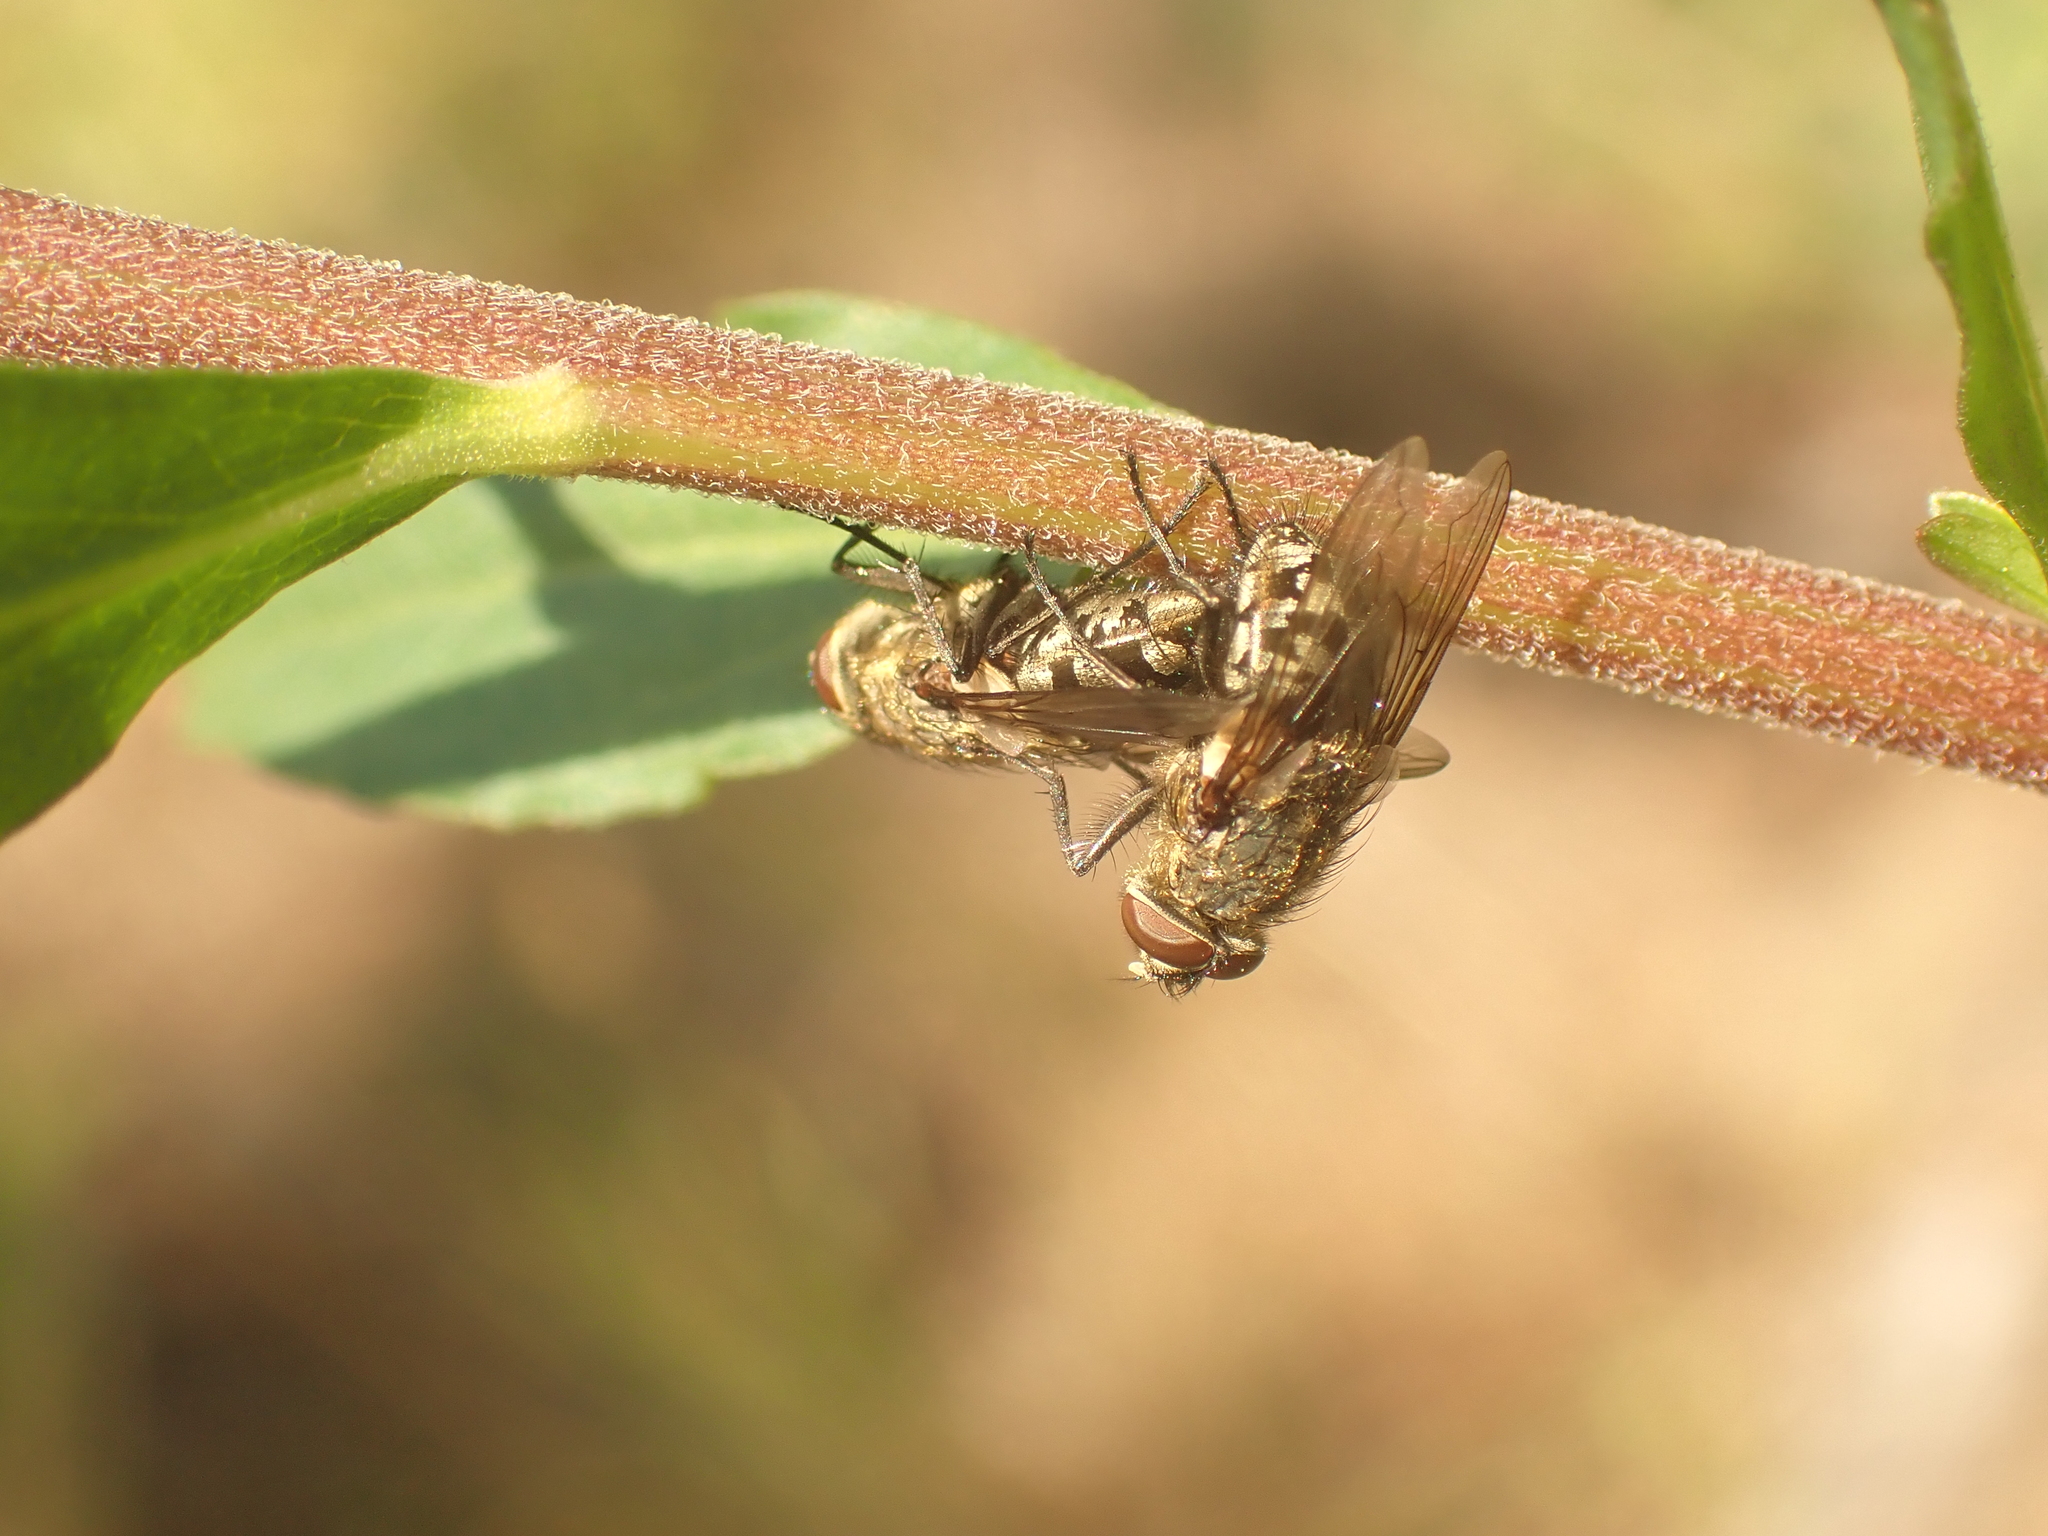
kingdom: Animalia
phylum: Arthropoda
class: Insecta
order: Diptera
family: Polleniidae
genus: Pollenia
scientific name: Pollenia
